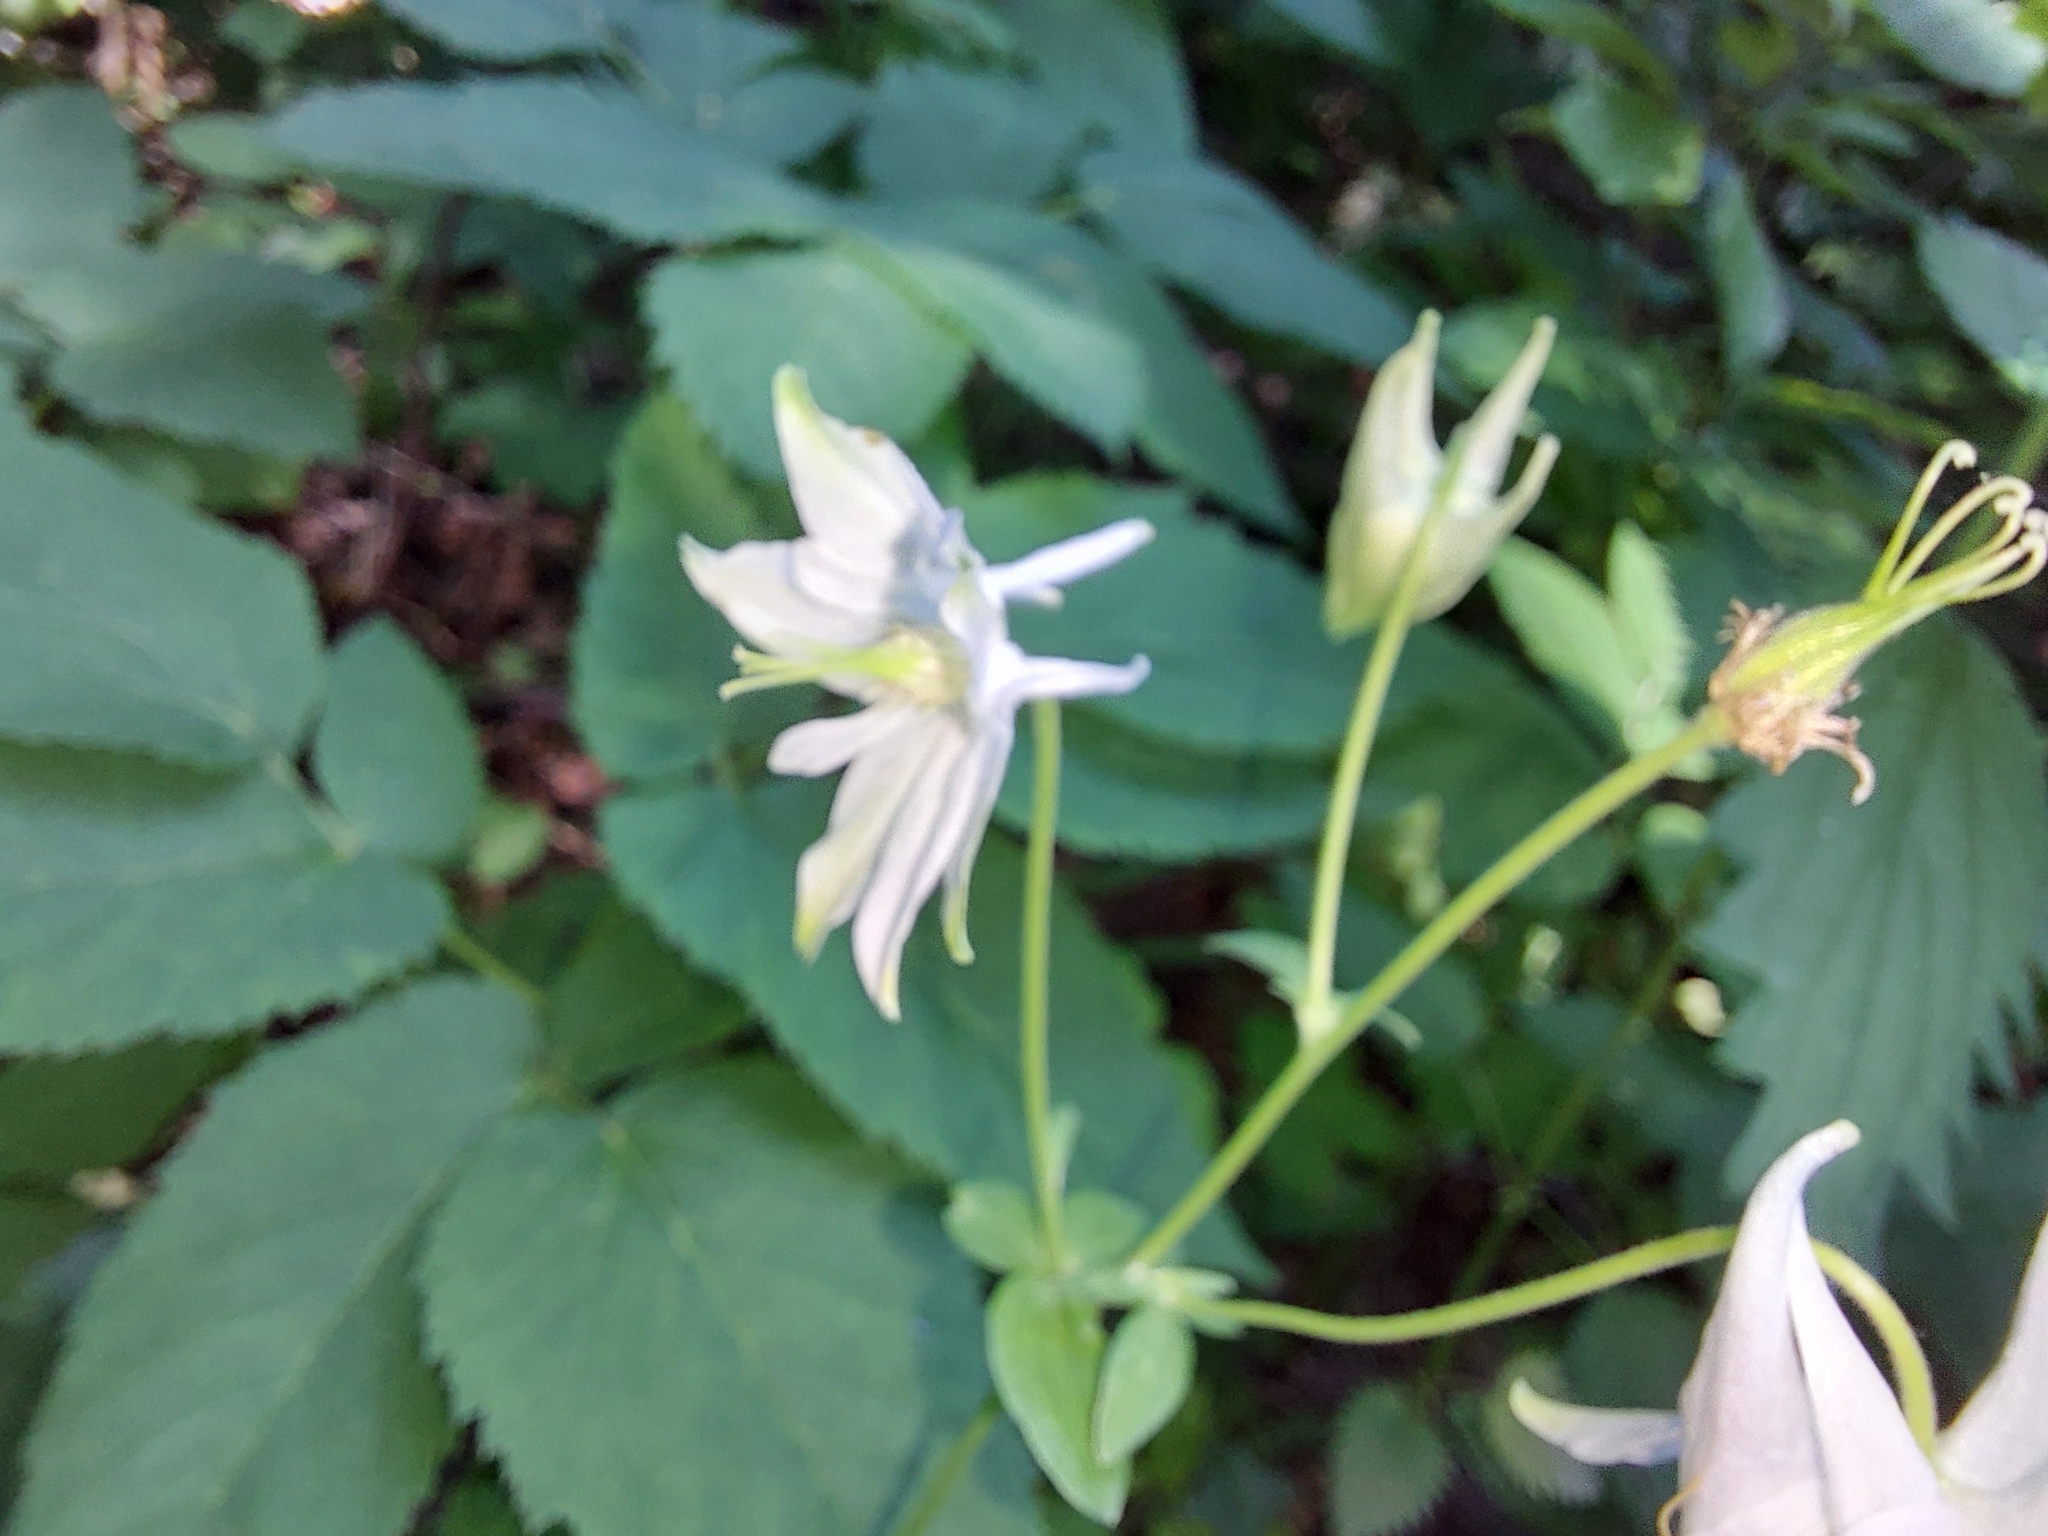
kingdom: Plantae
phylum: Tracheophyta
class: Magnoliopsida
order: Ranunculales
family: Ranunculaceae
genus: Aquilegia
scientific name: Aquilegia vulgaris
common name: Columbine
